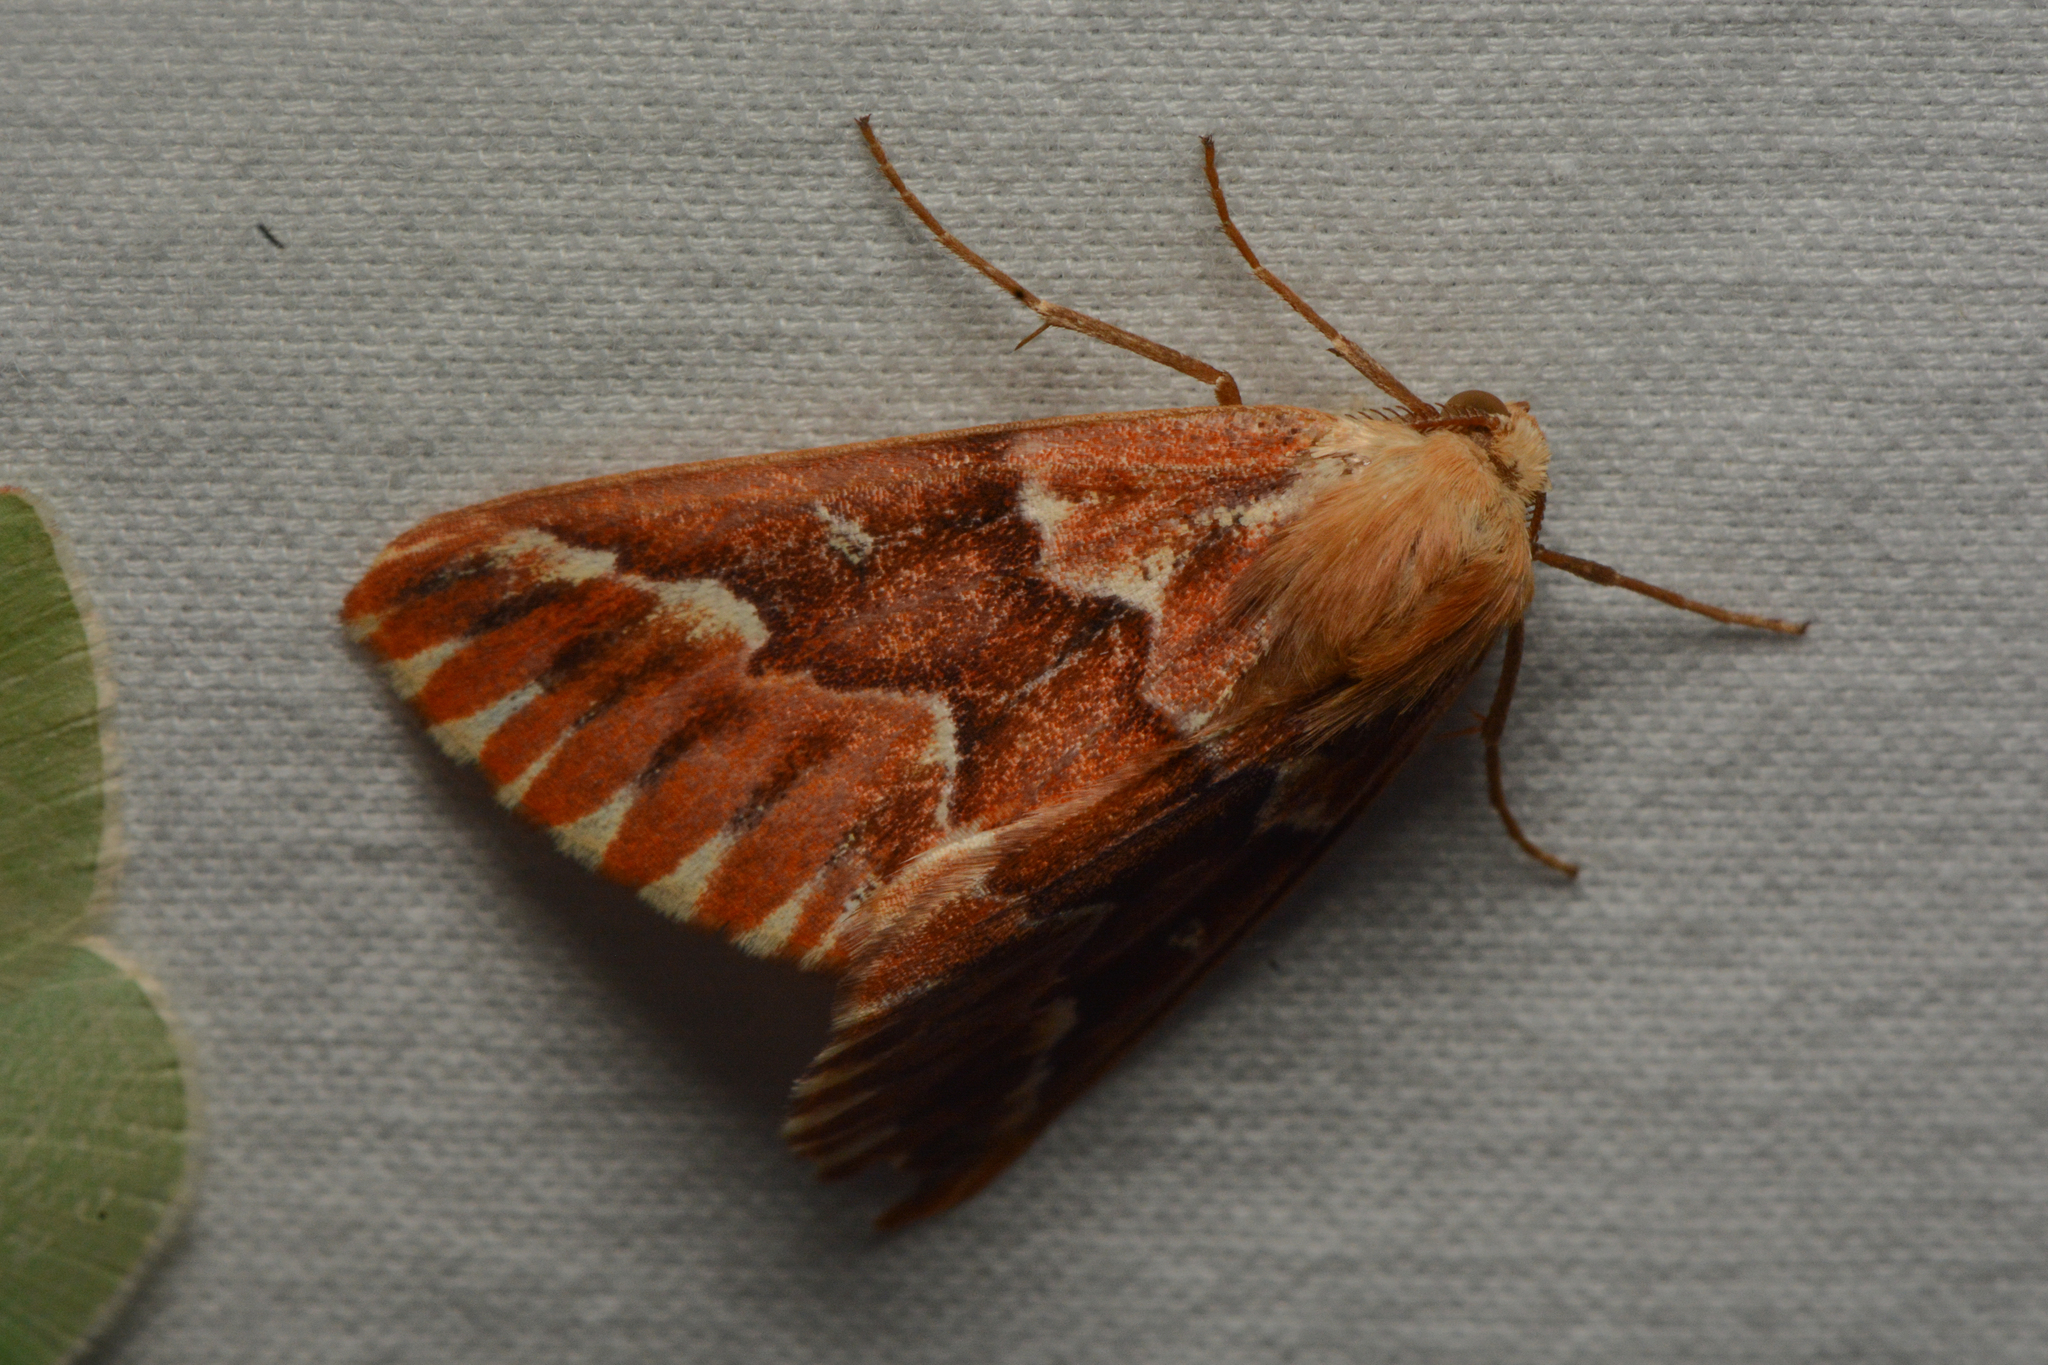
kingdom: Animalia
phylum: Arthropoda
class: Insecta
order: Lepidoptera
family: Geometridae
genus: Caripeta
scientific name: Caripeta aequaliaria
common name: Red girdle moth
